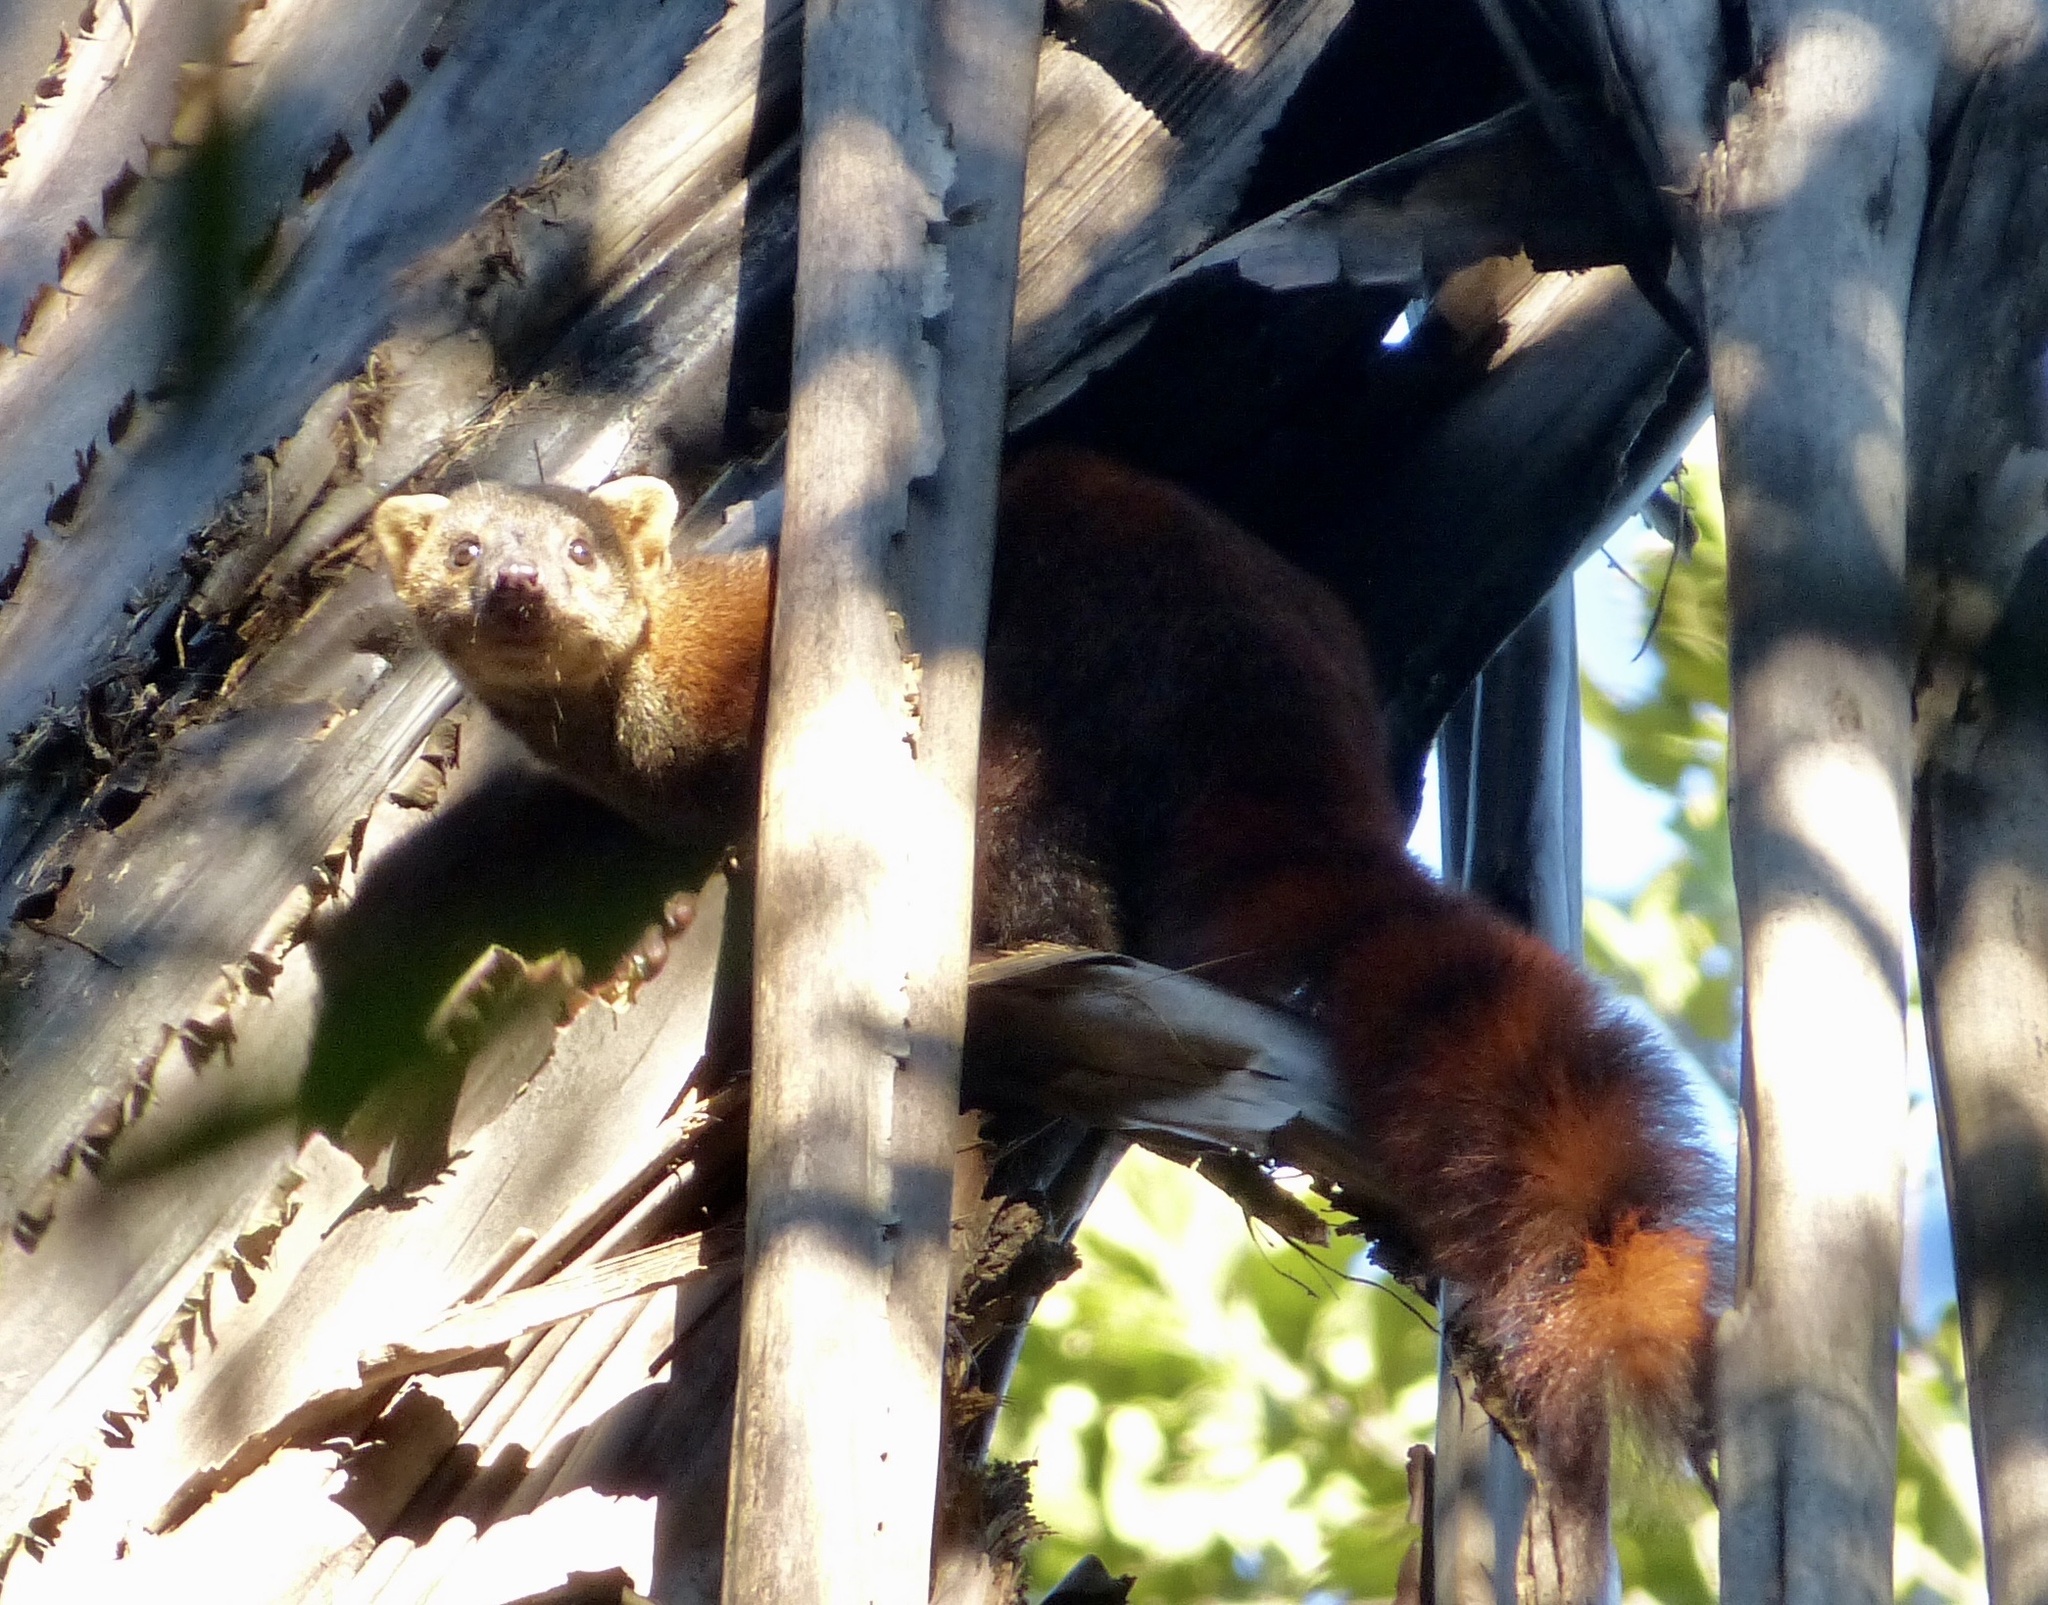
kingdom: Animalia
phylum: Chordata
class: Mammalia
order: Carnivora
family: Eupleridae
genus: Galidia
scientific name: Galidia elegans
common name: Ring-tailed mongoose
